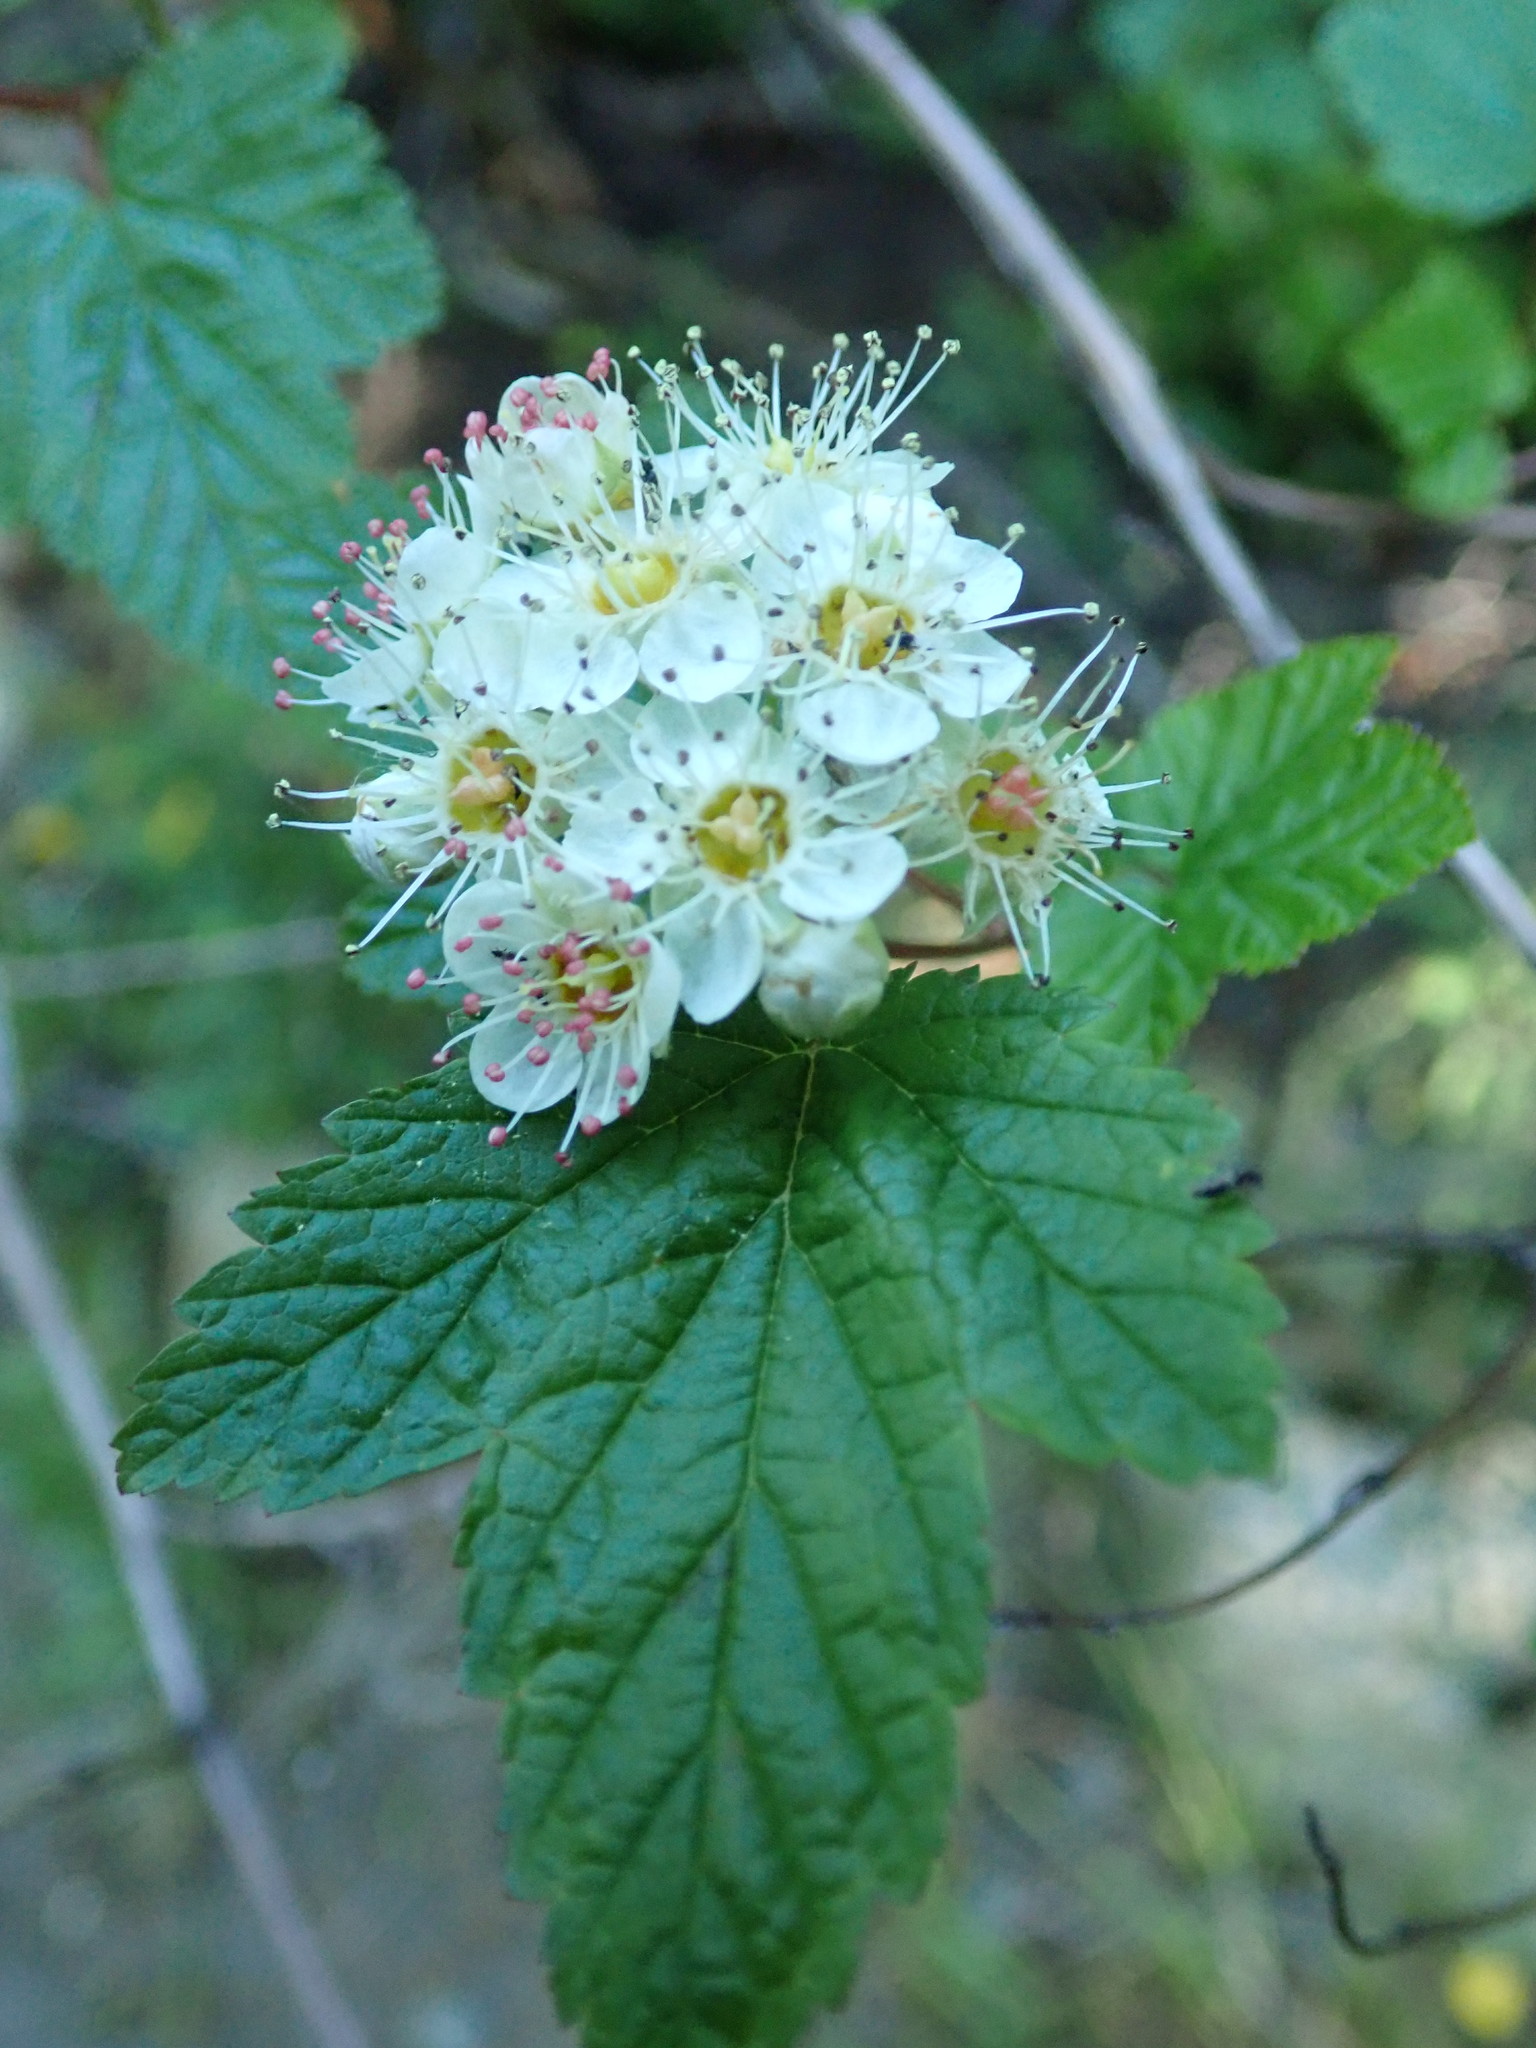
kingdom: Plantae
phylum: Tracheophyta
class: Magnoliopsida
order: Rosales
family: Rosaceae
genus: Physocarpus
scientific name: Physocarpus capitatus
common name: Pacific ninebark
